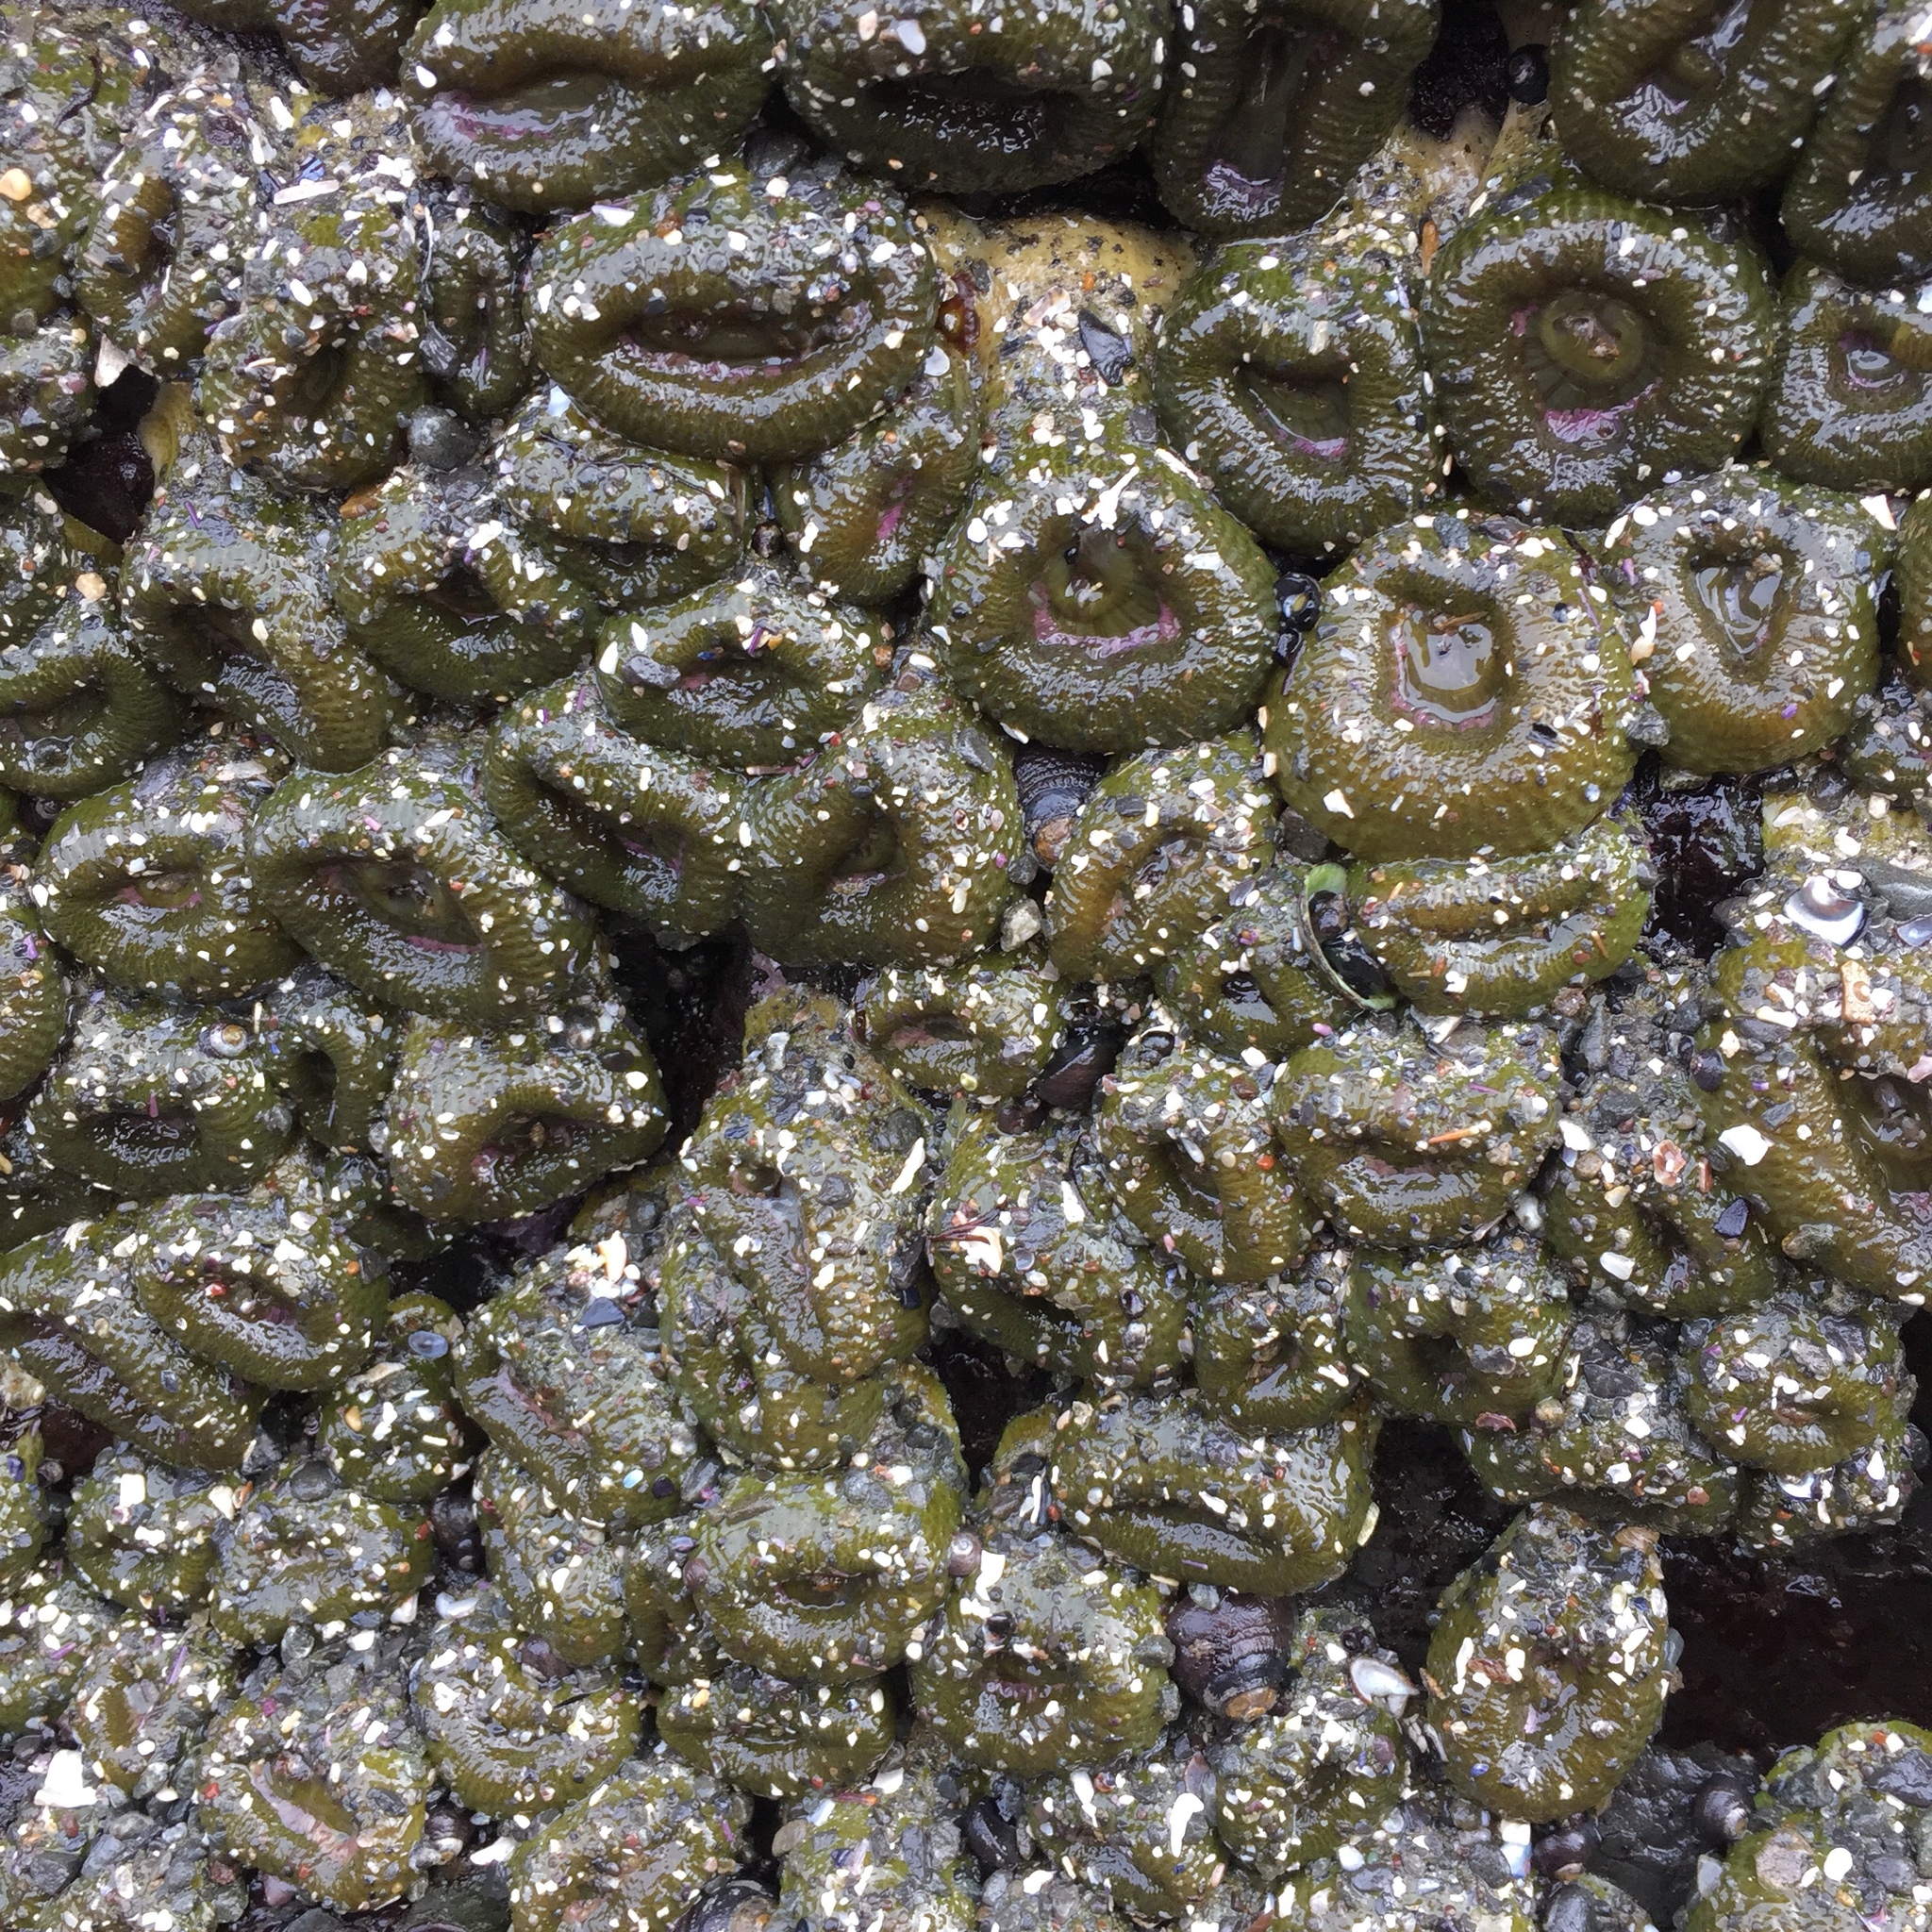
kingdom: Animalia
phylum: Cnidaria
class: Anthozoa
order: Actiniaria
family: Actiniidae
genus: Anthopleura
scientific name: Anthopleura elegantissima
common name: Clonal anemone
